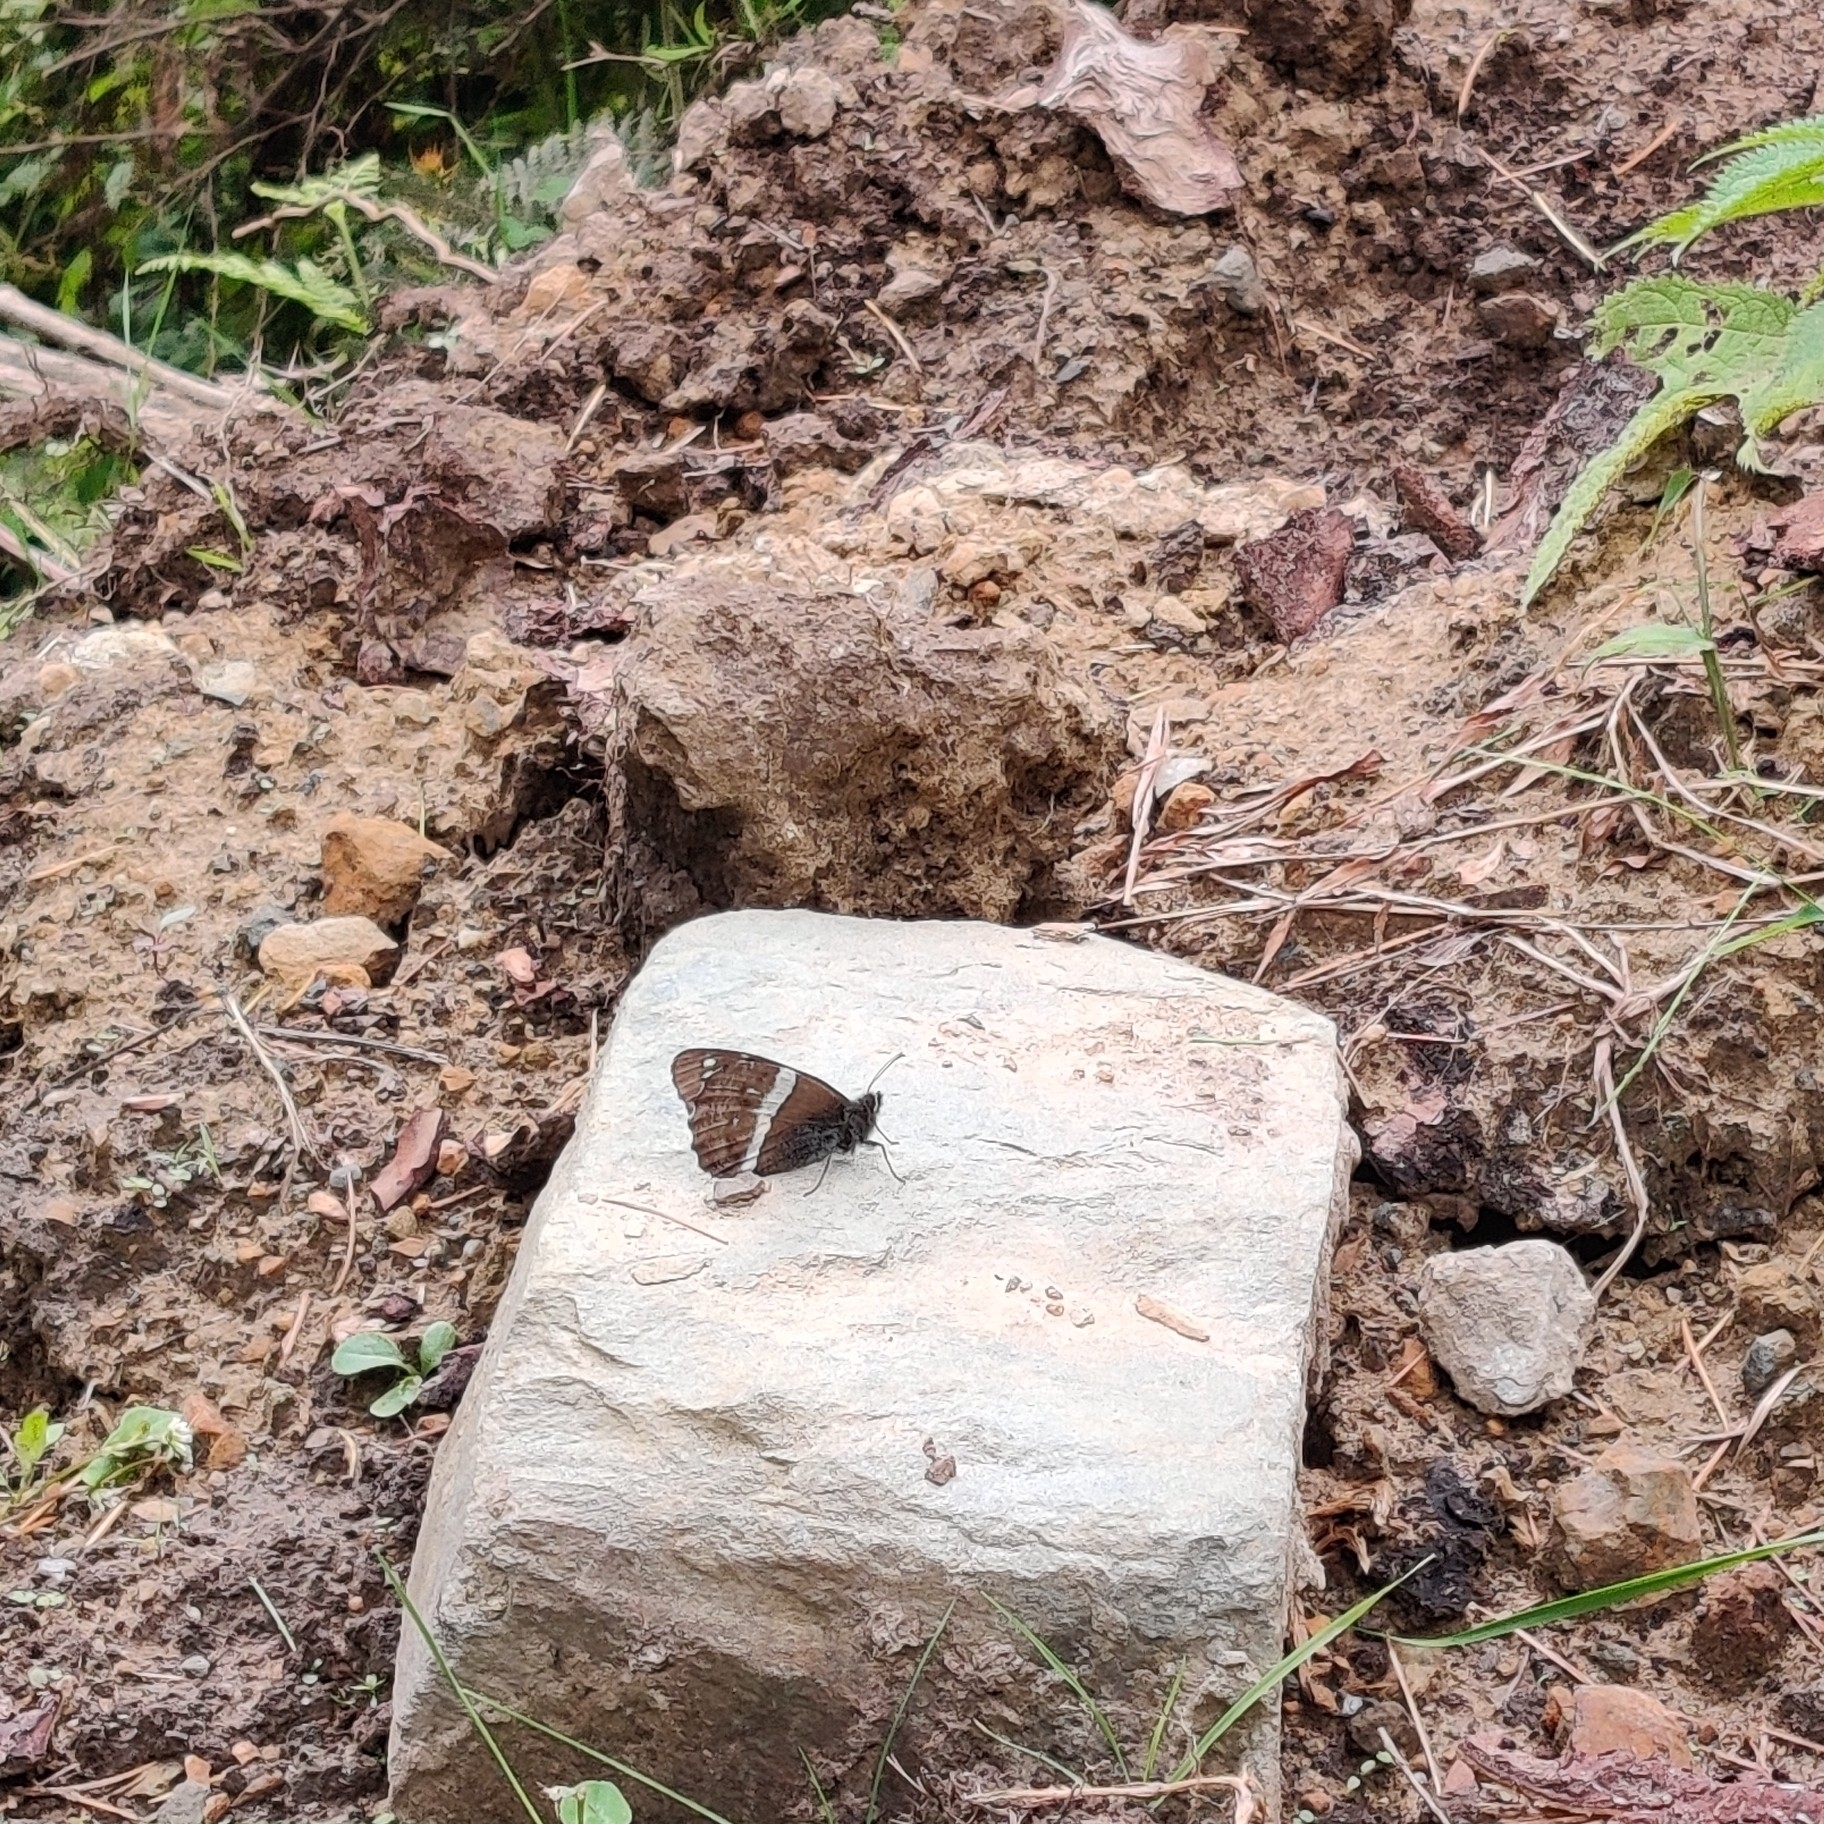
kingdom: Animalia
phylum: Arthropoda
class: Insecta
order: Lepidoptera
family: Nymphalidae
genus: Satyrus
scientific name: Satyrus
